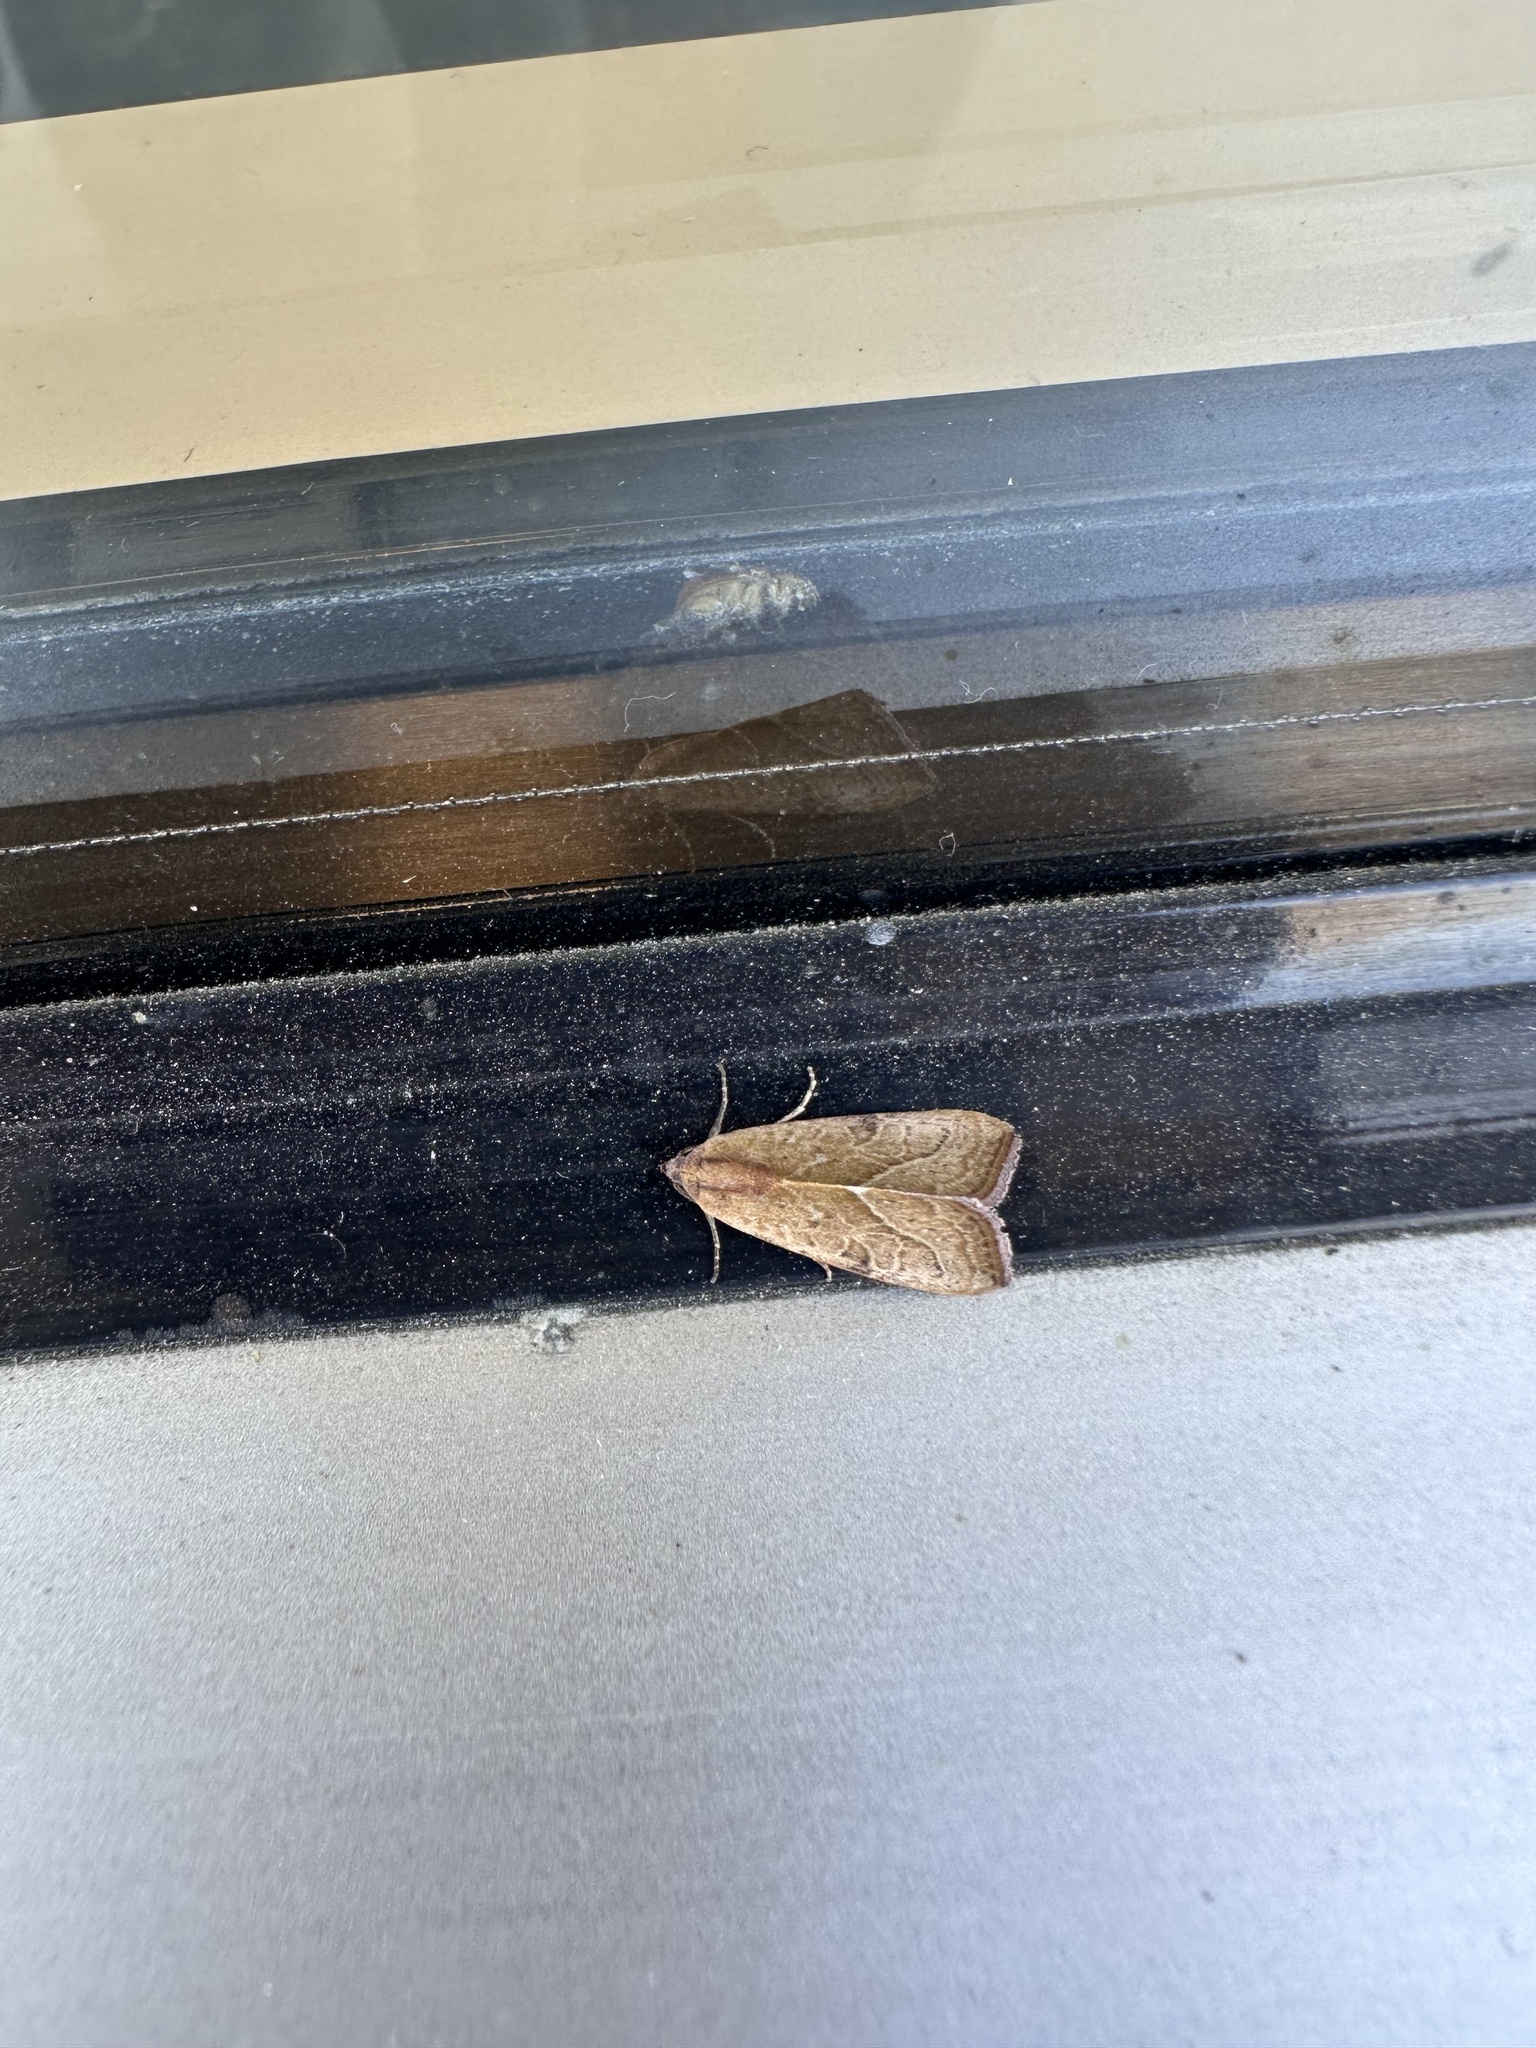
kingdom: Animalia
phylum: Arthropoda
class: Insecta
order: Lepidoptera
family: Noctuidae
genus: Galgula
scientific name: Galgula partita
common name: Wedgeling
